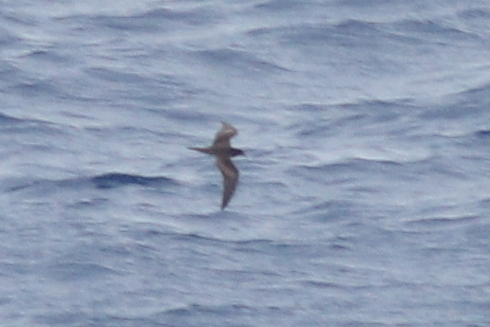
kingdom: Animalia
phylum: Chordata
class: Aves
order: Procellariiformes
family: Procellariidae
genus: Bulweria
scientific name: Bulweria bulwerii
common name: Bulwer's petrel
